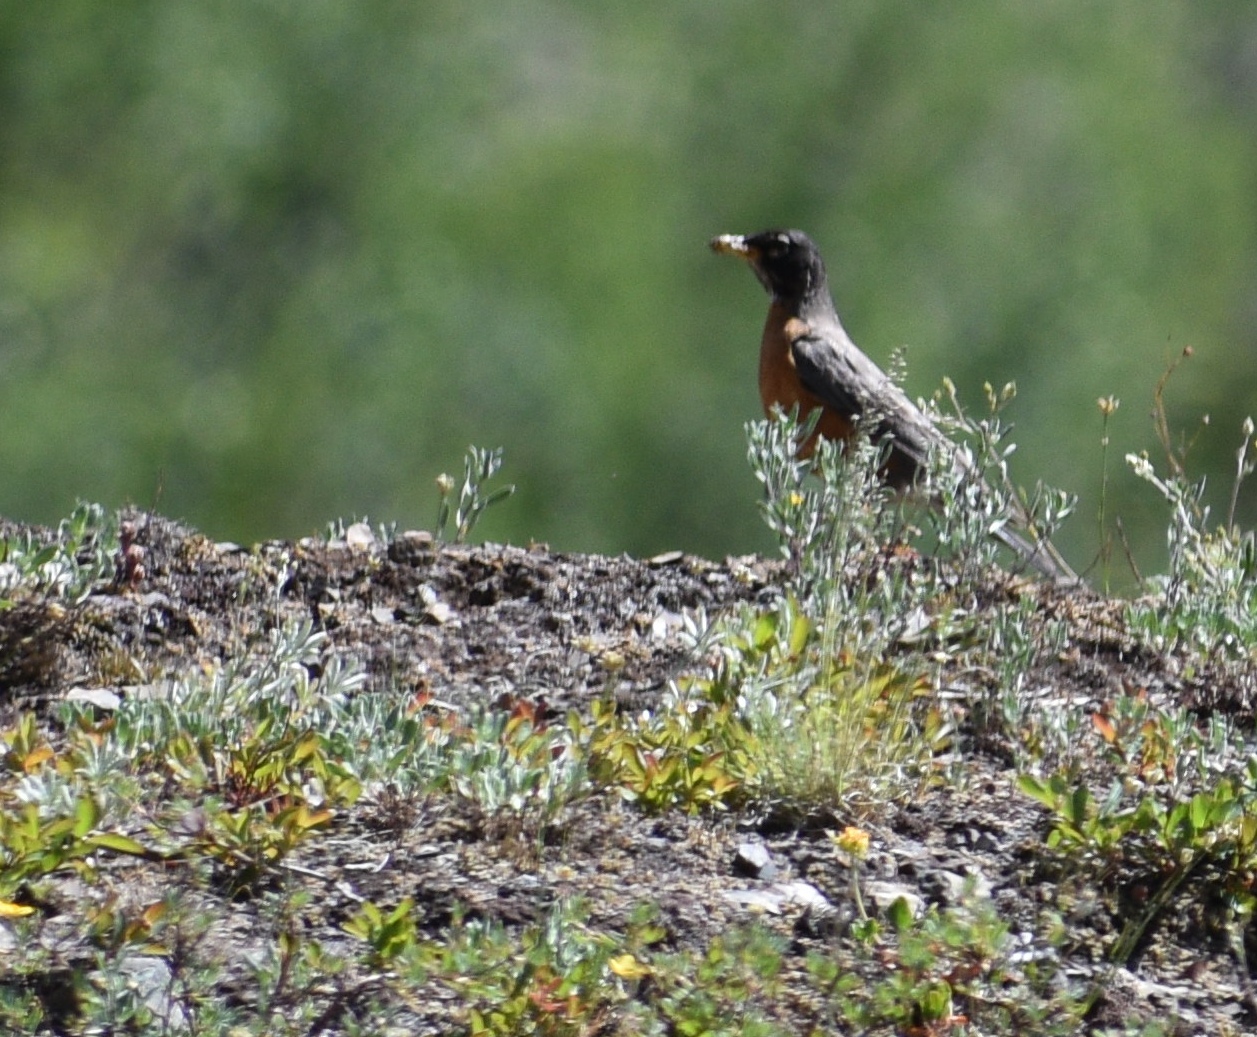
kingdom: Animalia
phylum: Chordata
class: Aves
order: Passeriformes
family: Turdidae
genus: Turdus
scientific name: Turdus migratorius
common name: American robin
